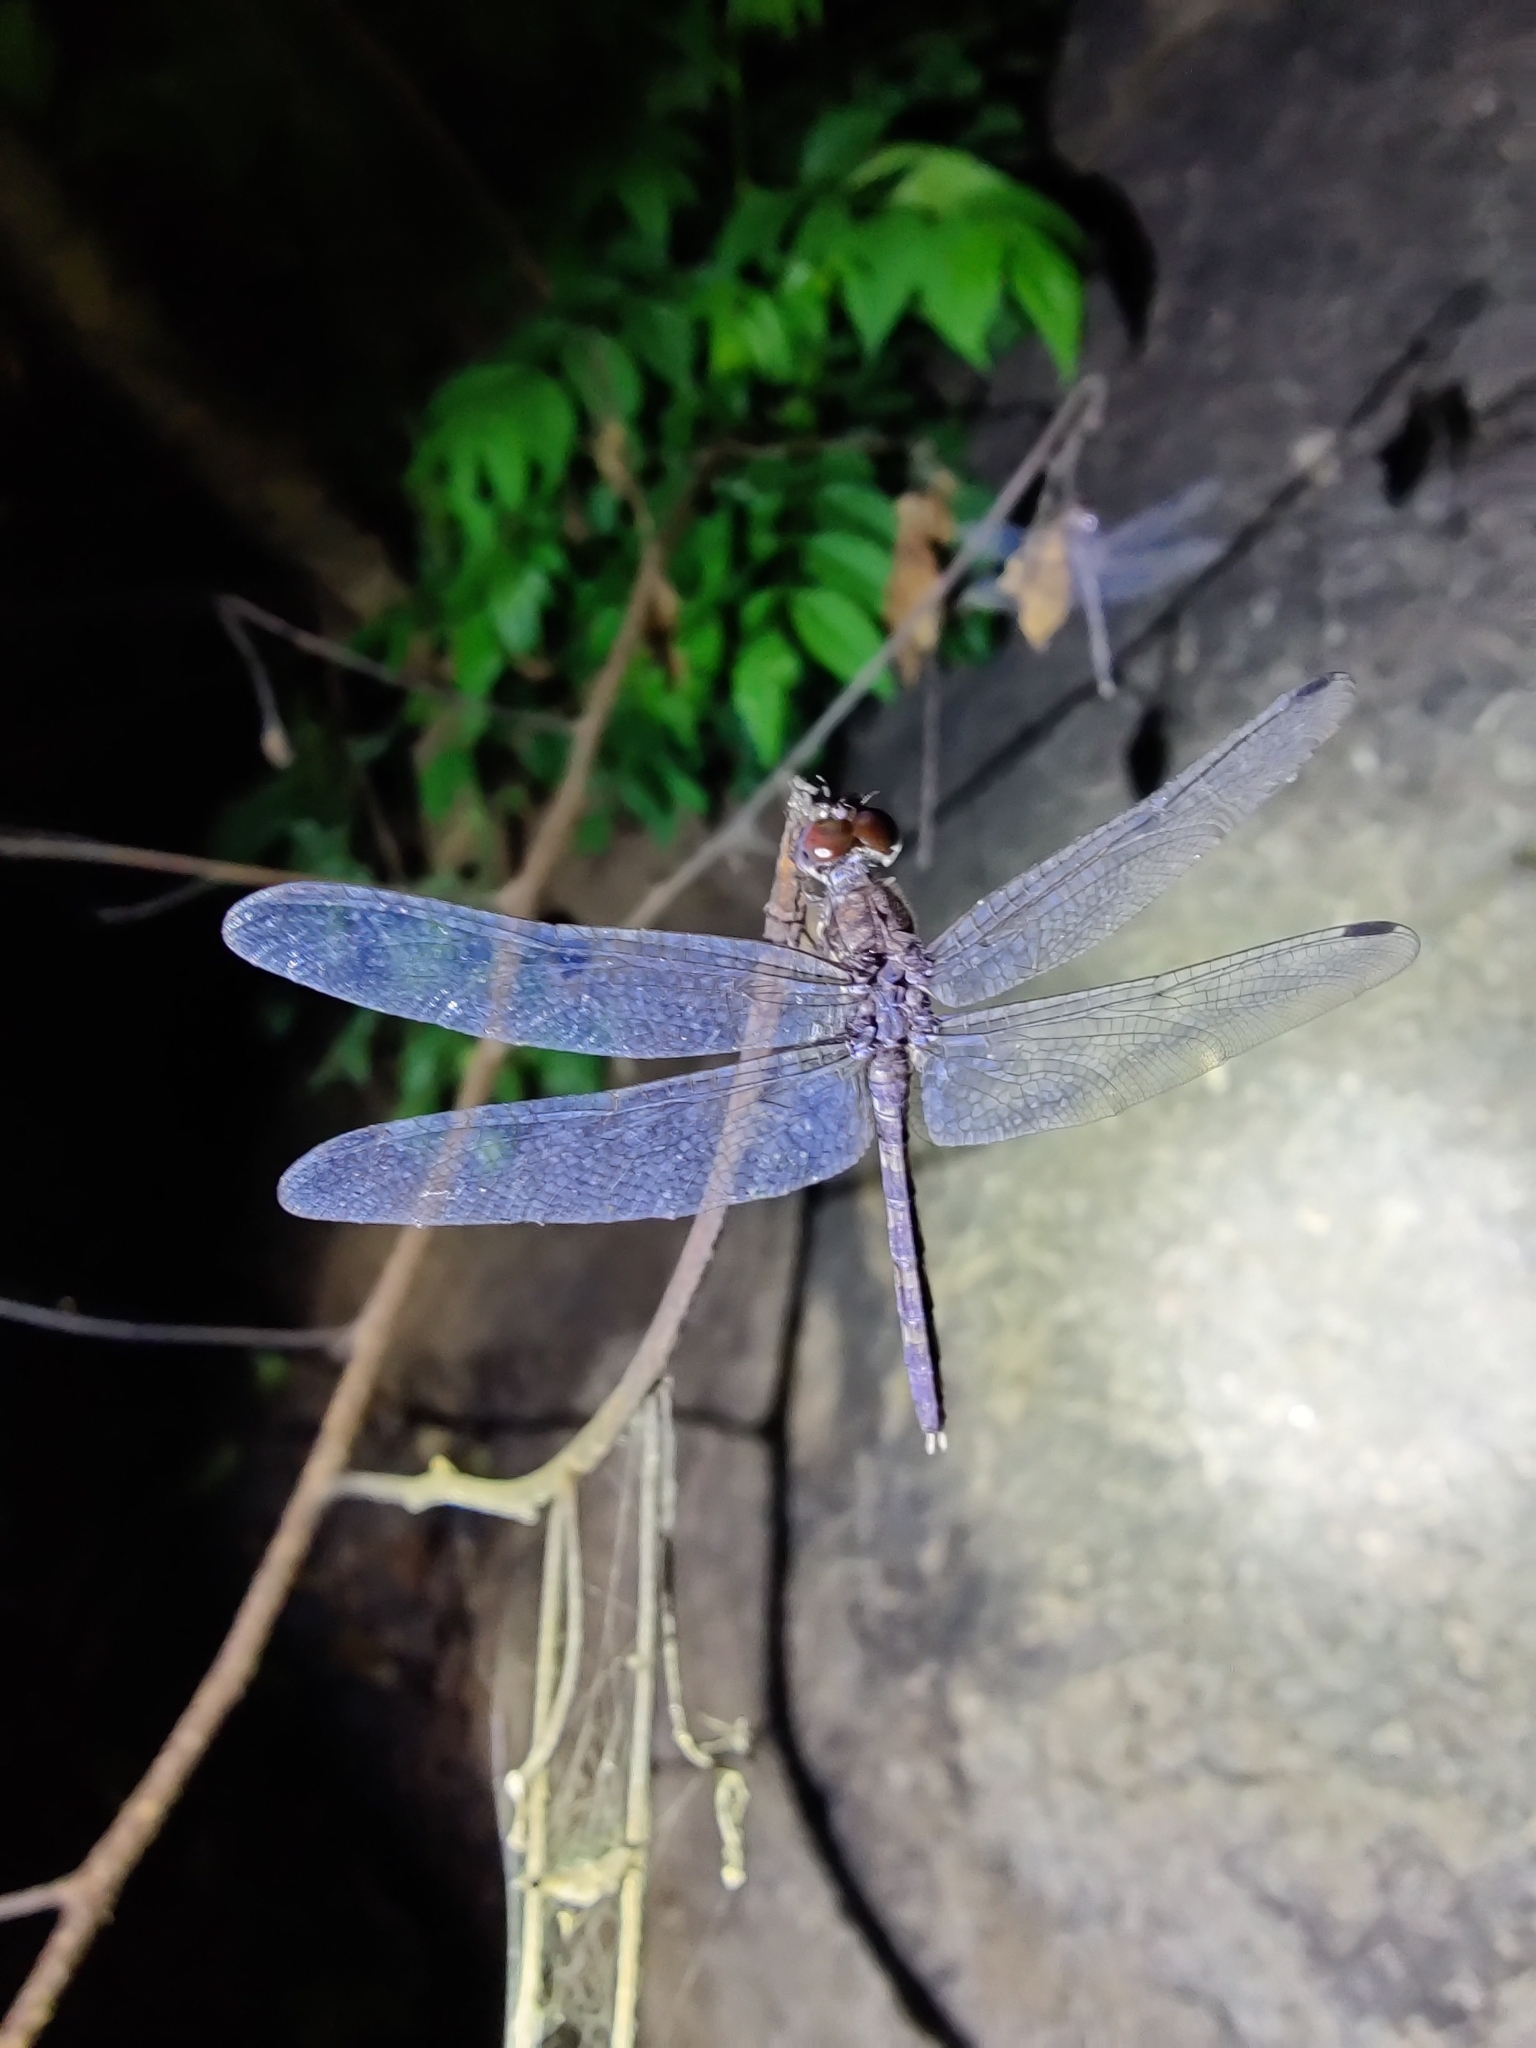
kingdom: Animalia
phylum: Arthropoda
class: Insecta
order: Odonata
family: Libellulidae
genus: Bradinopyga
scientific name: Bradinopyga geminata
